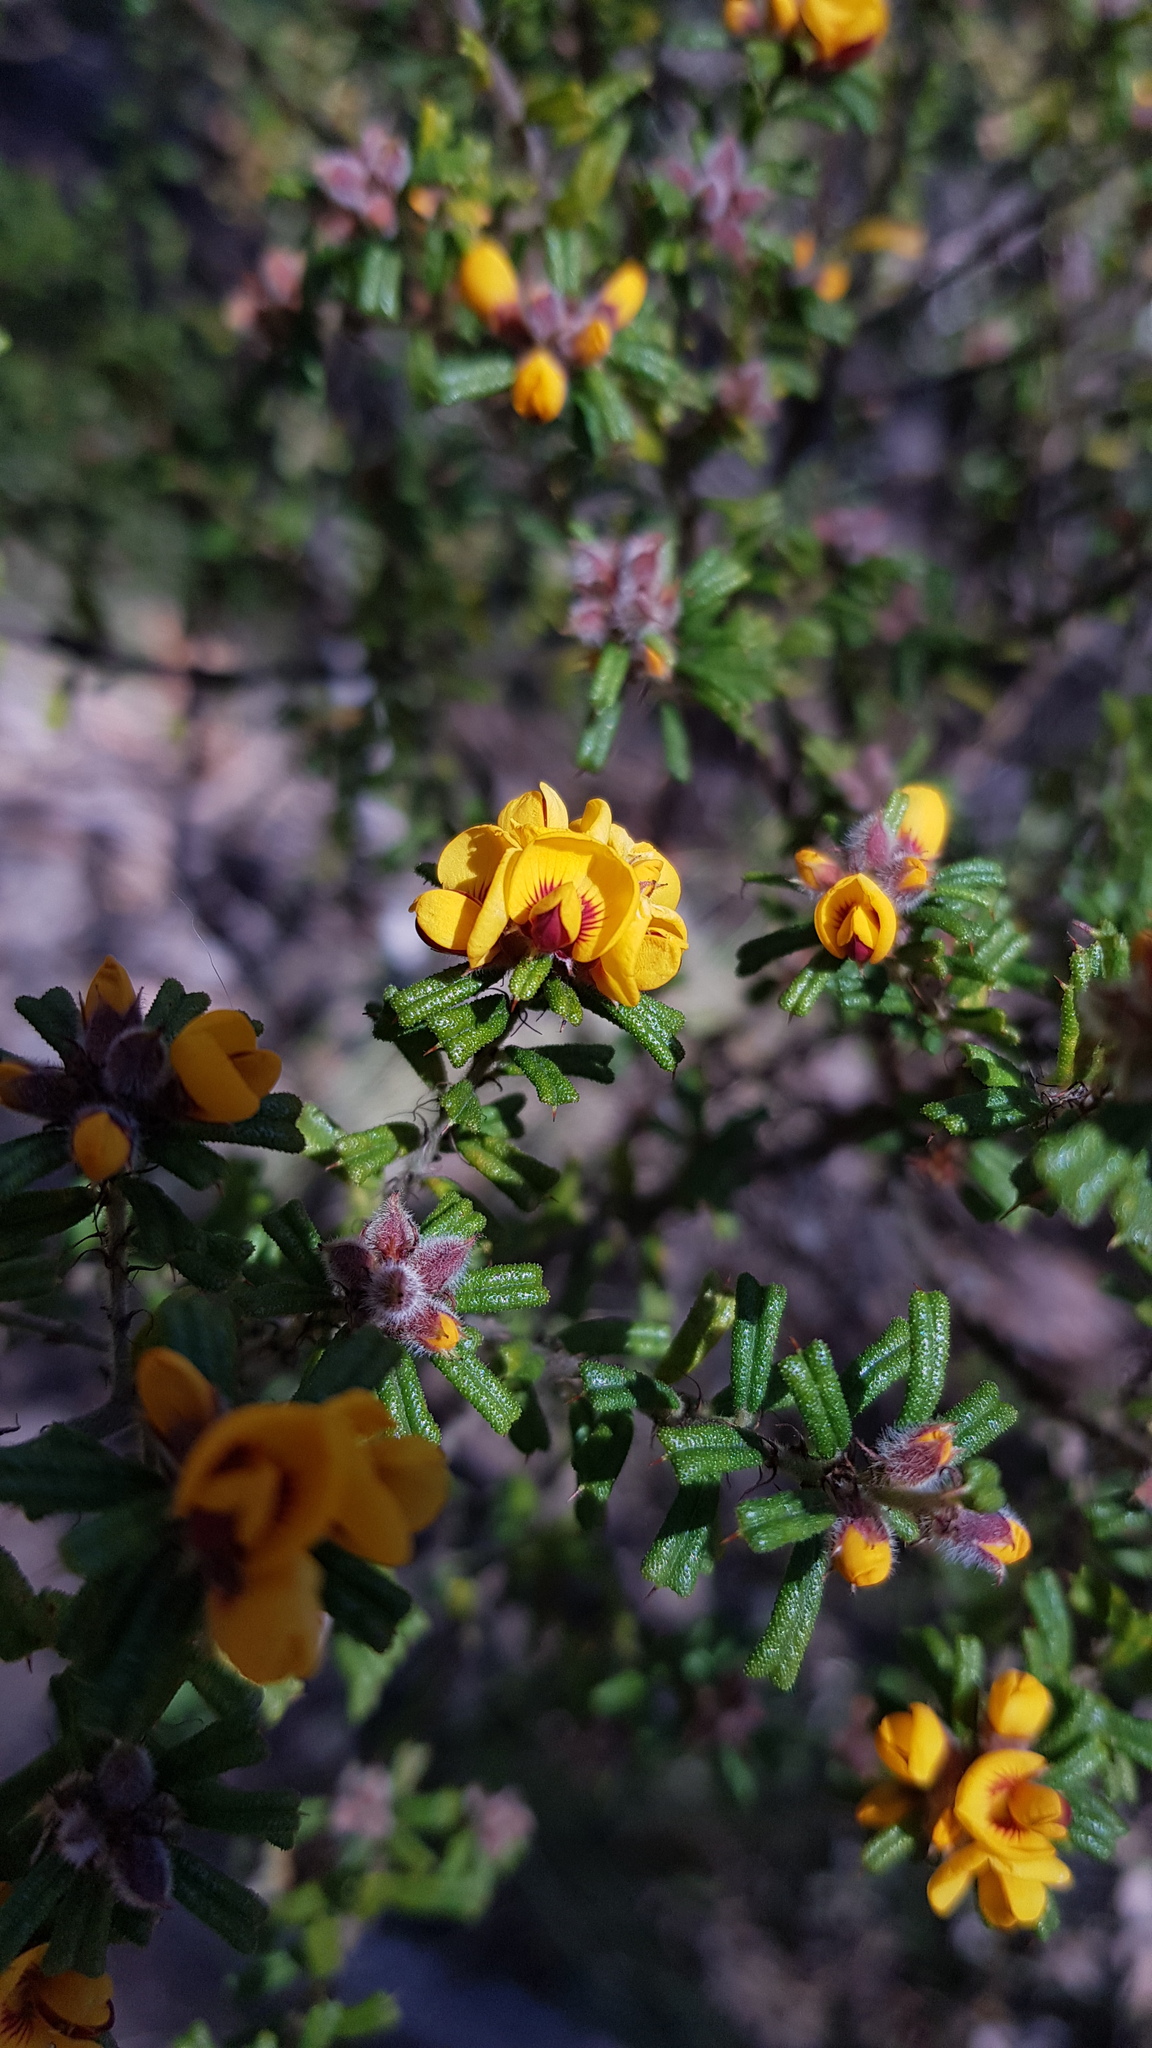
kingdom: Plantae
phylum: Tracheophyta
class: Magnoliopsida
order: Fabales
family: Fabaceae
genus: Pultenaea
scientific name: Pultenaea scabra
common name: Rough bush-pea
